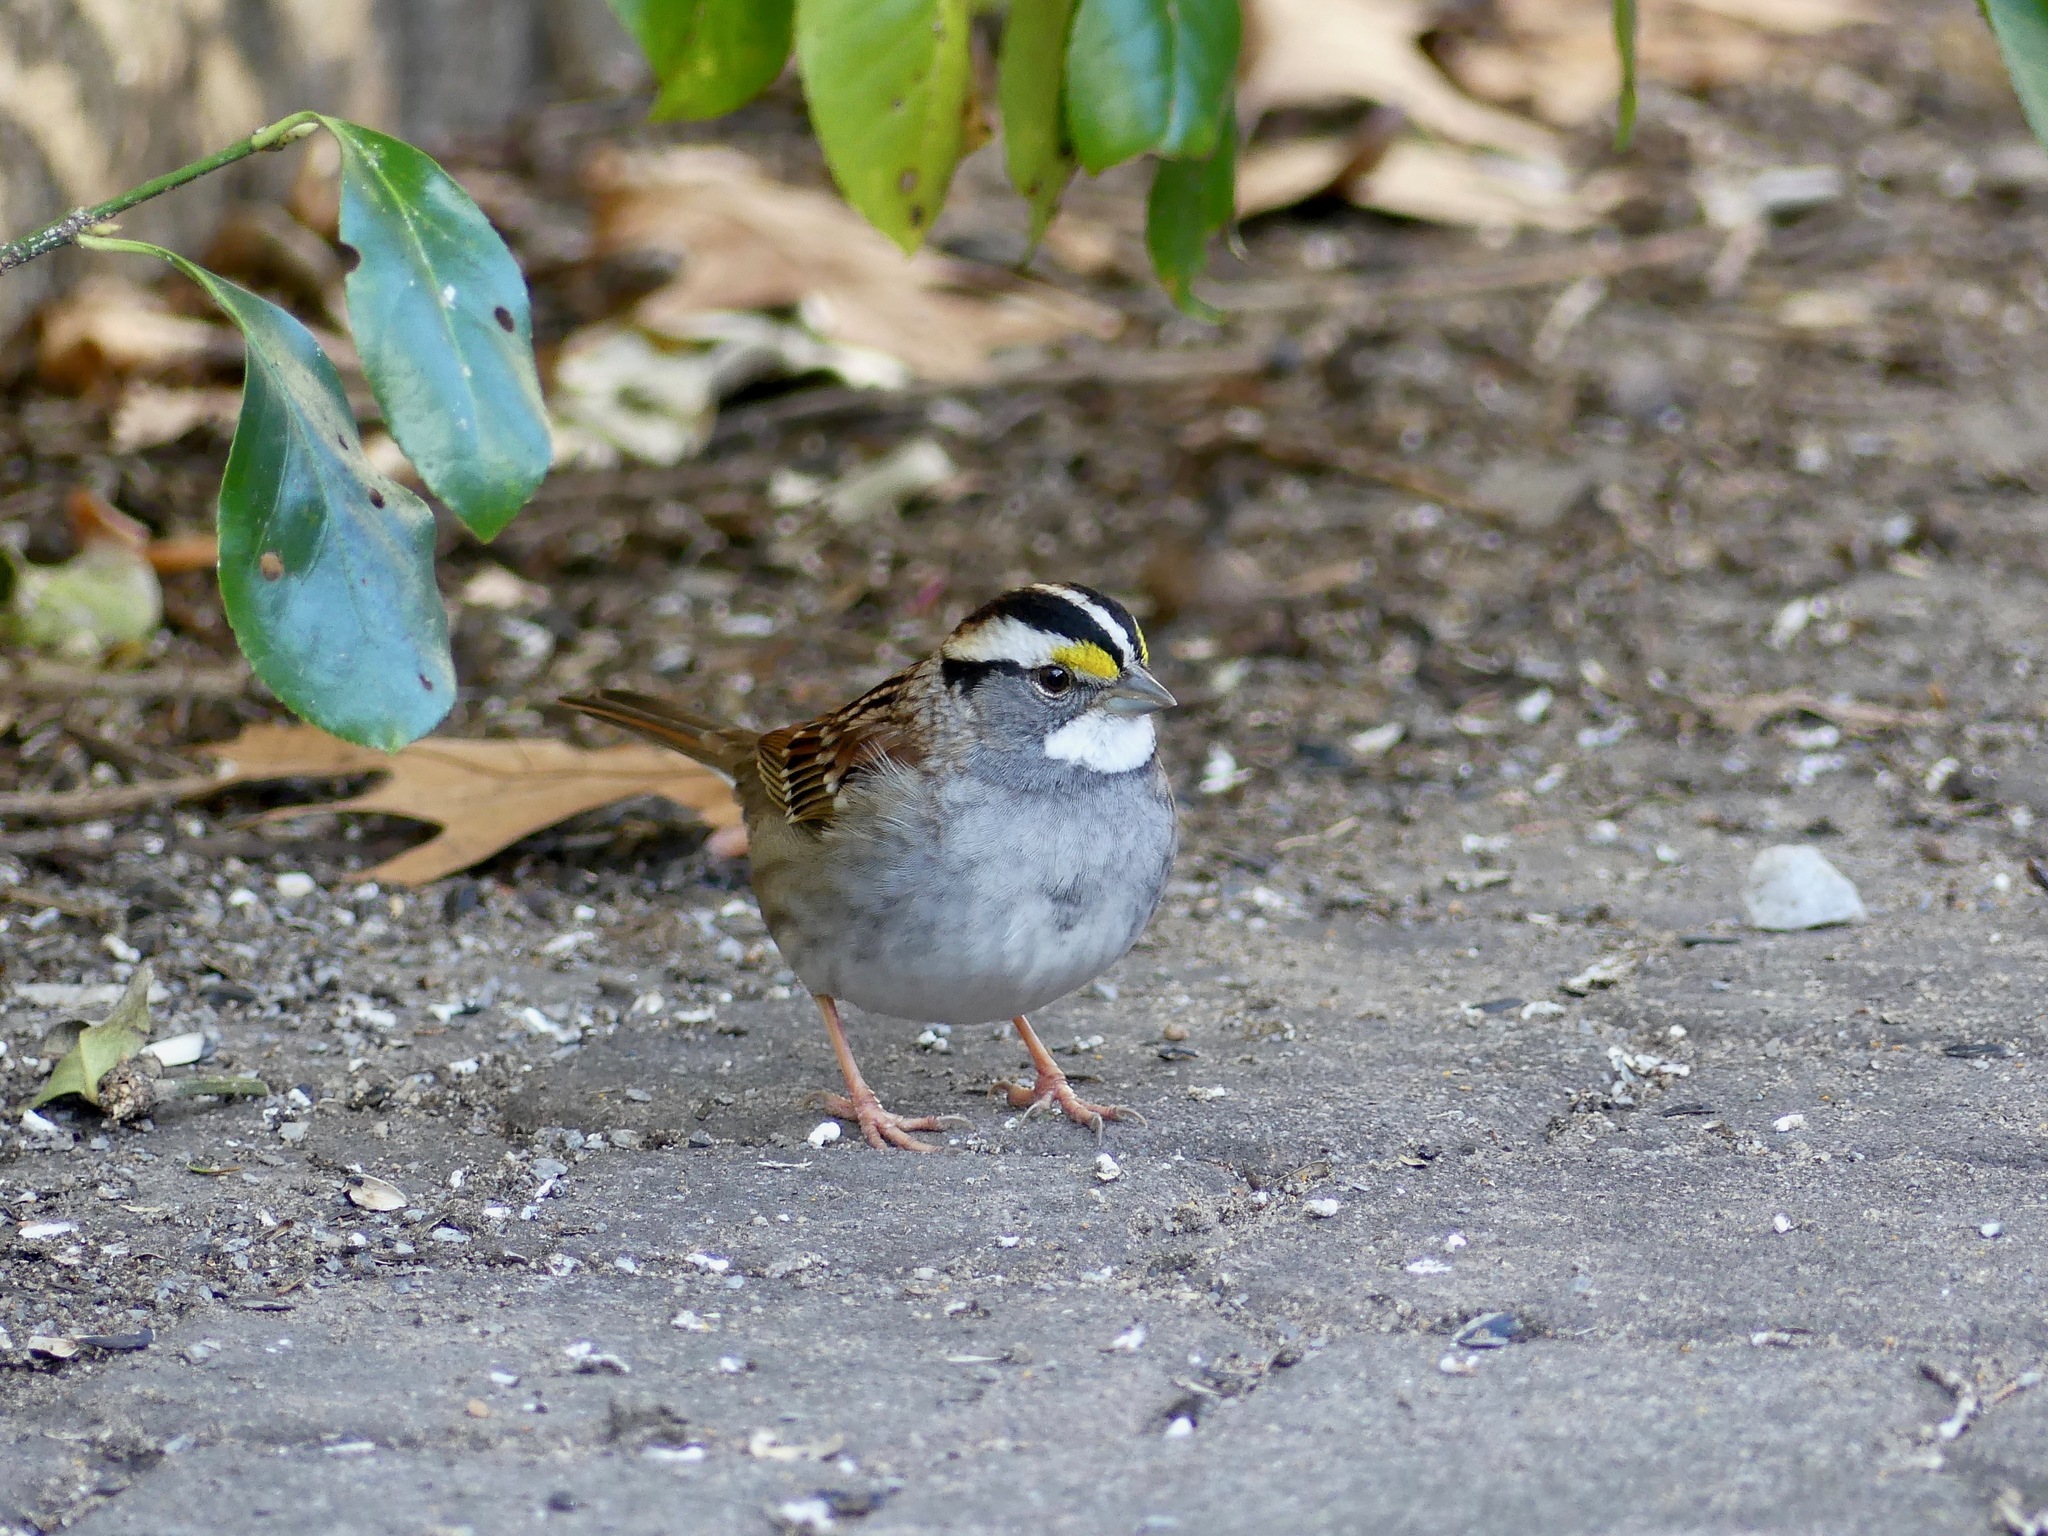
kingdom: Animalia
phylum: Chordata
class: Aves
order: Passeriformes
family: Passerellidae
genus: Zonotrichia
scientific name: Zonotrichia albicollis
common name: White-throated sparrow
